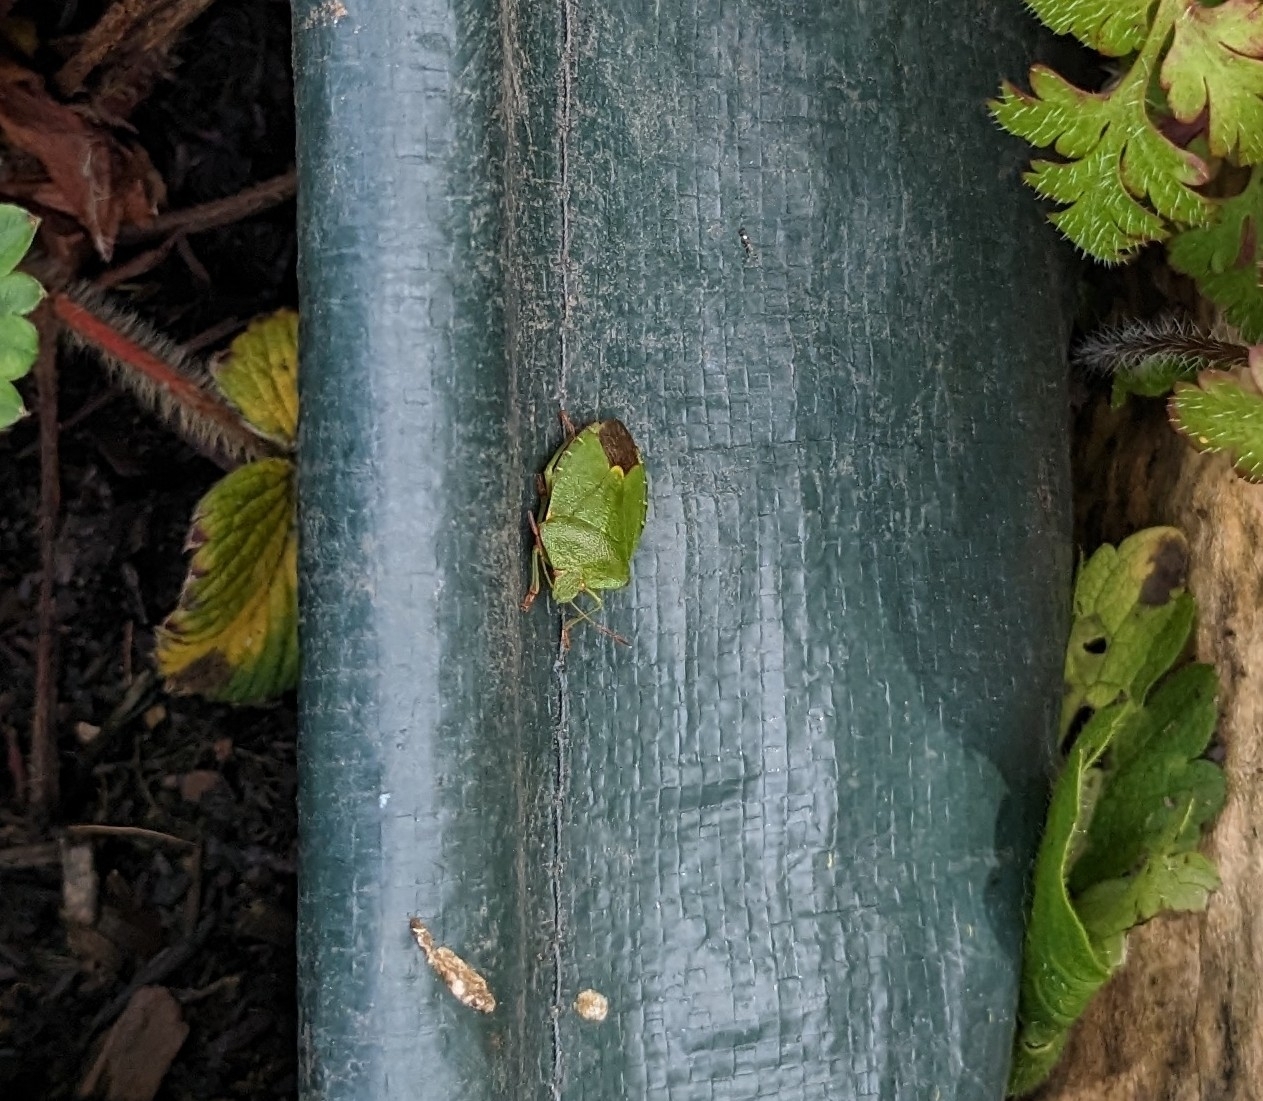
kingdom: Animalia
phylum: Arthropoda
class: Insecta
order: Hemiptera
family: Pentatomidae
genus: Palomena
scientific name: Palomena prasina
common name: Green shieldbug
